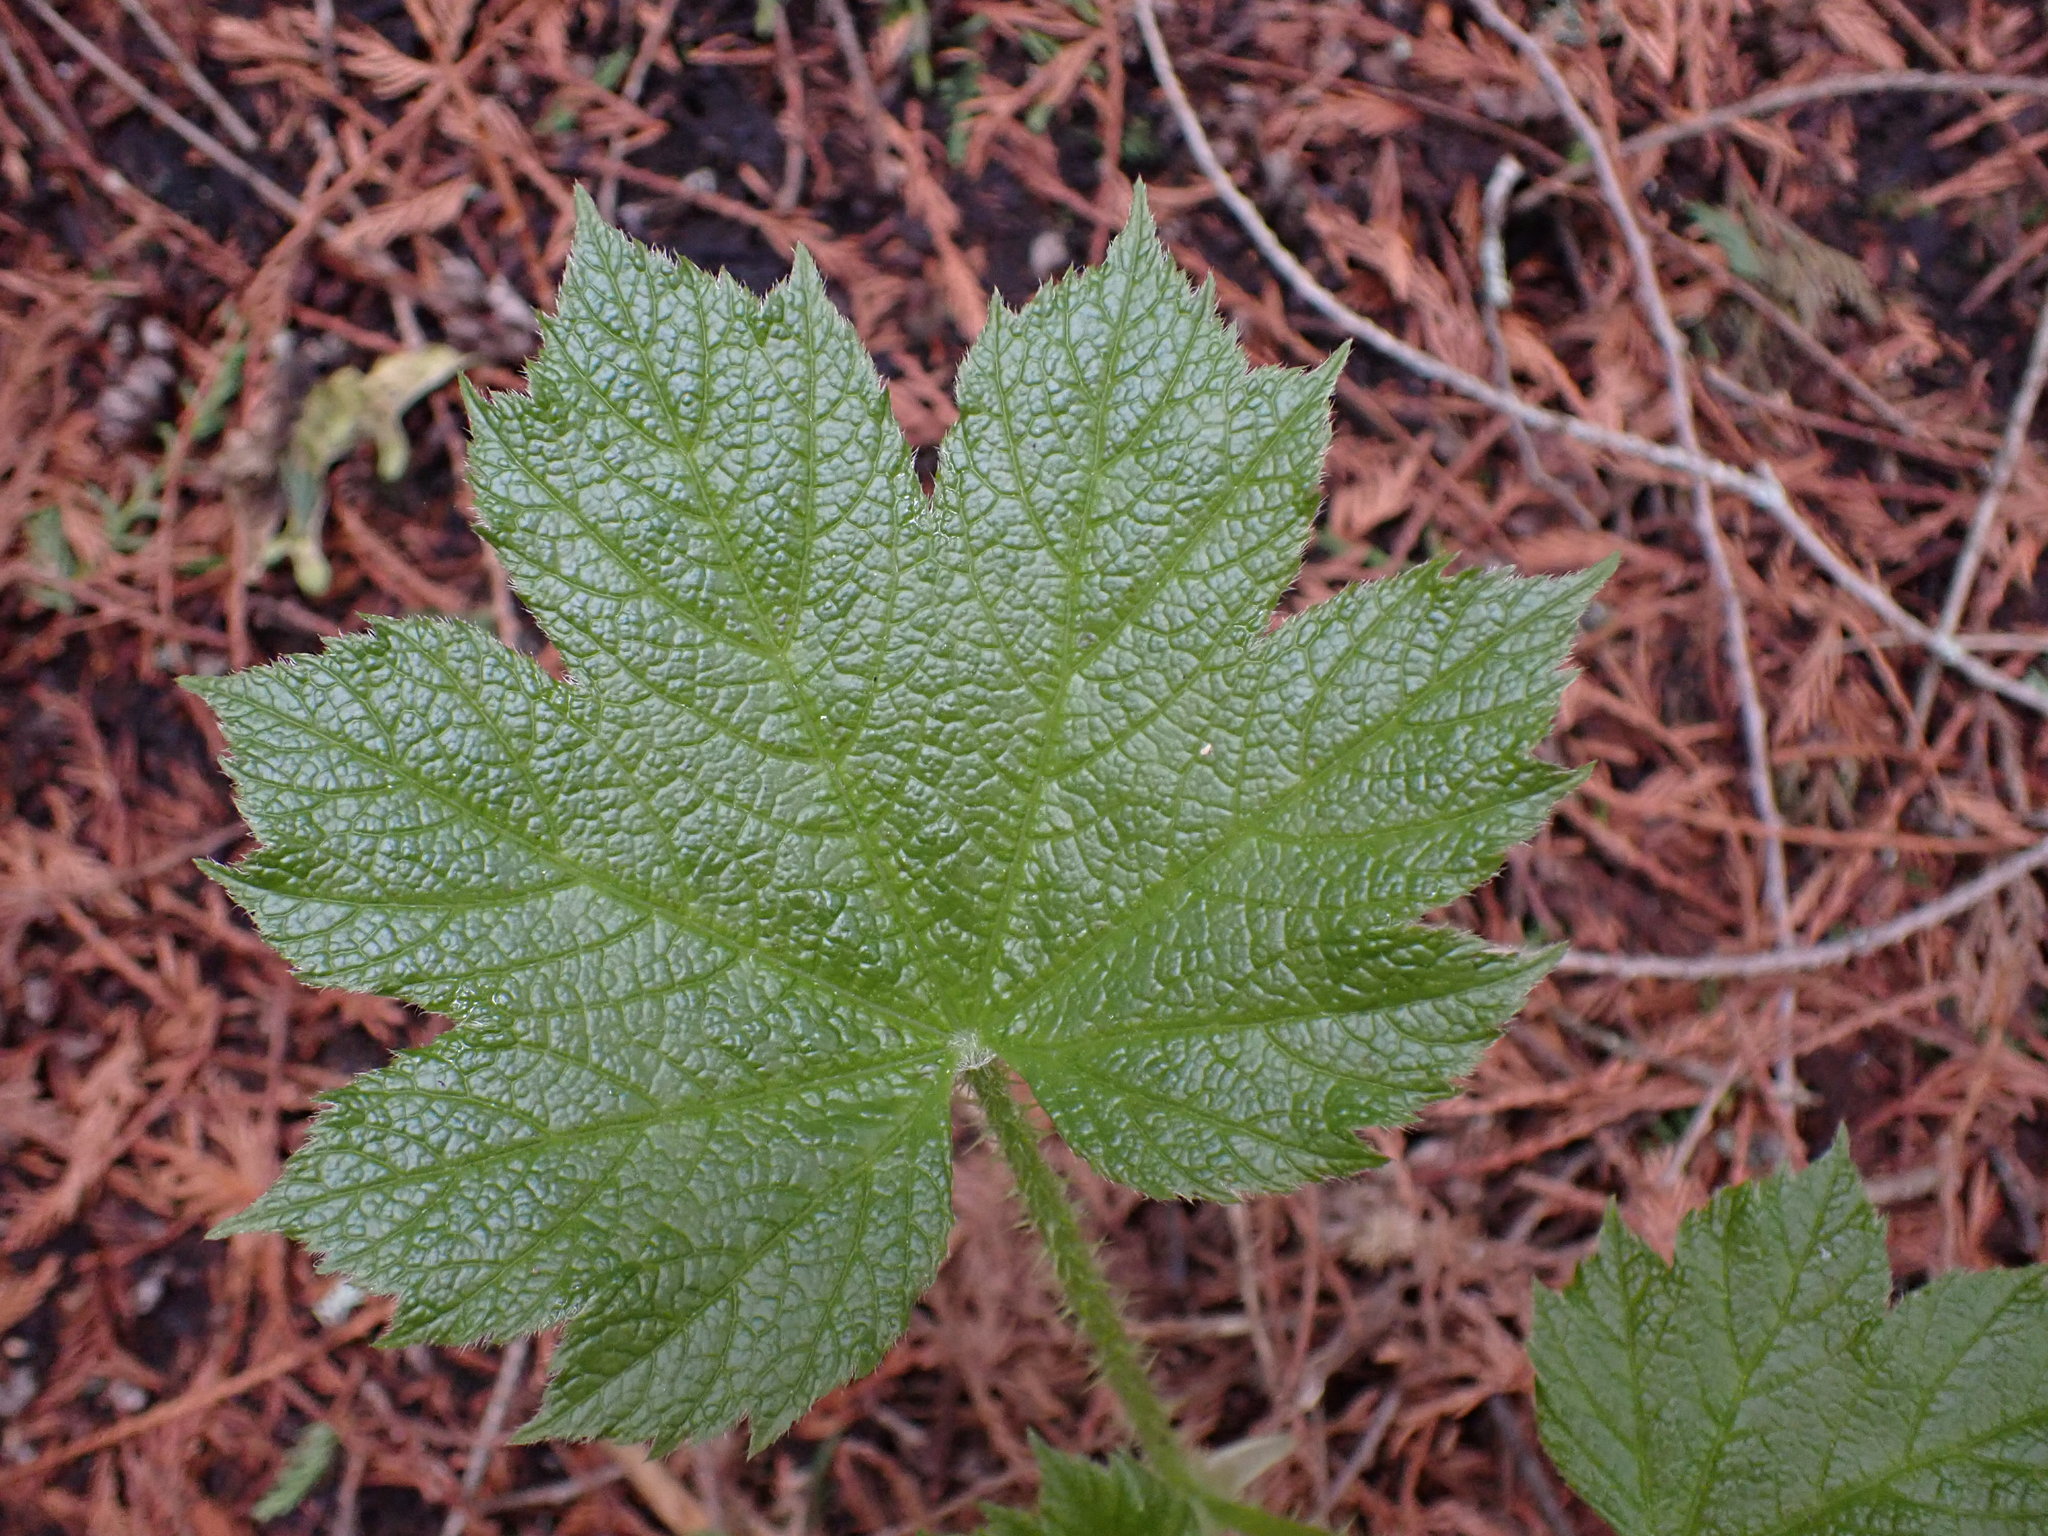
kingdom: Plantae
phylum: Tracheophyta
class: Magnoliopsida
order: Apiales
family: Araliaceae
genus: Oplopanax
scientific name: Oplopanax horridus
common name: Devil's walking-stick
